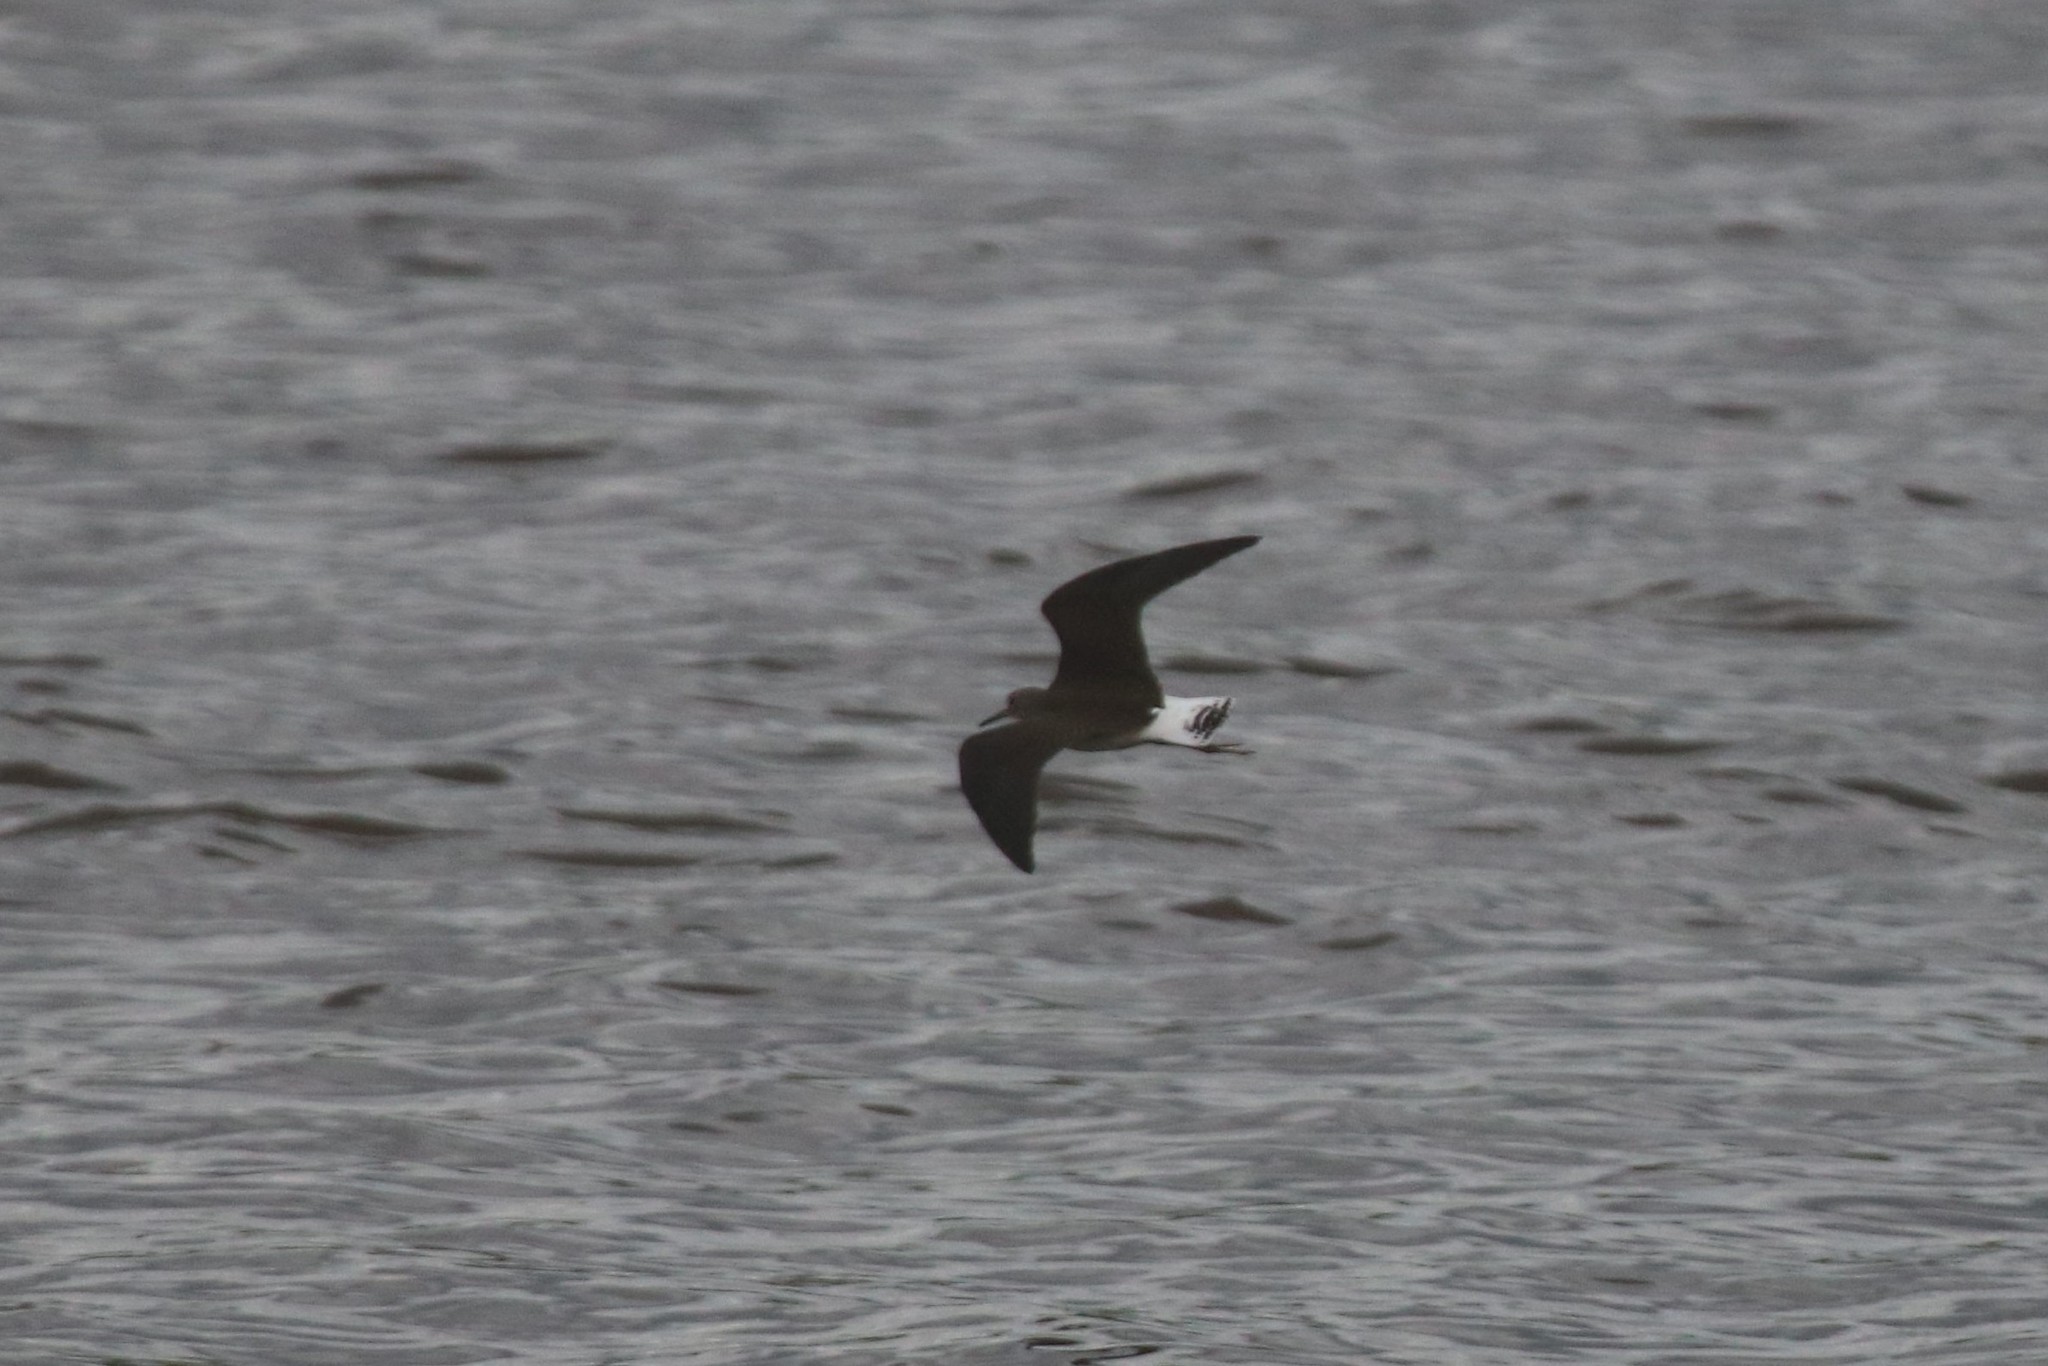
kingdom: Animalia
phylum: Chordata
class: Aves
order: Charadriiformes
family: Scolopacidae
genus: Tringa
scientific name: Tringa ochropus
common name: Green sandpiper
